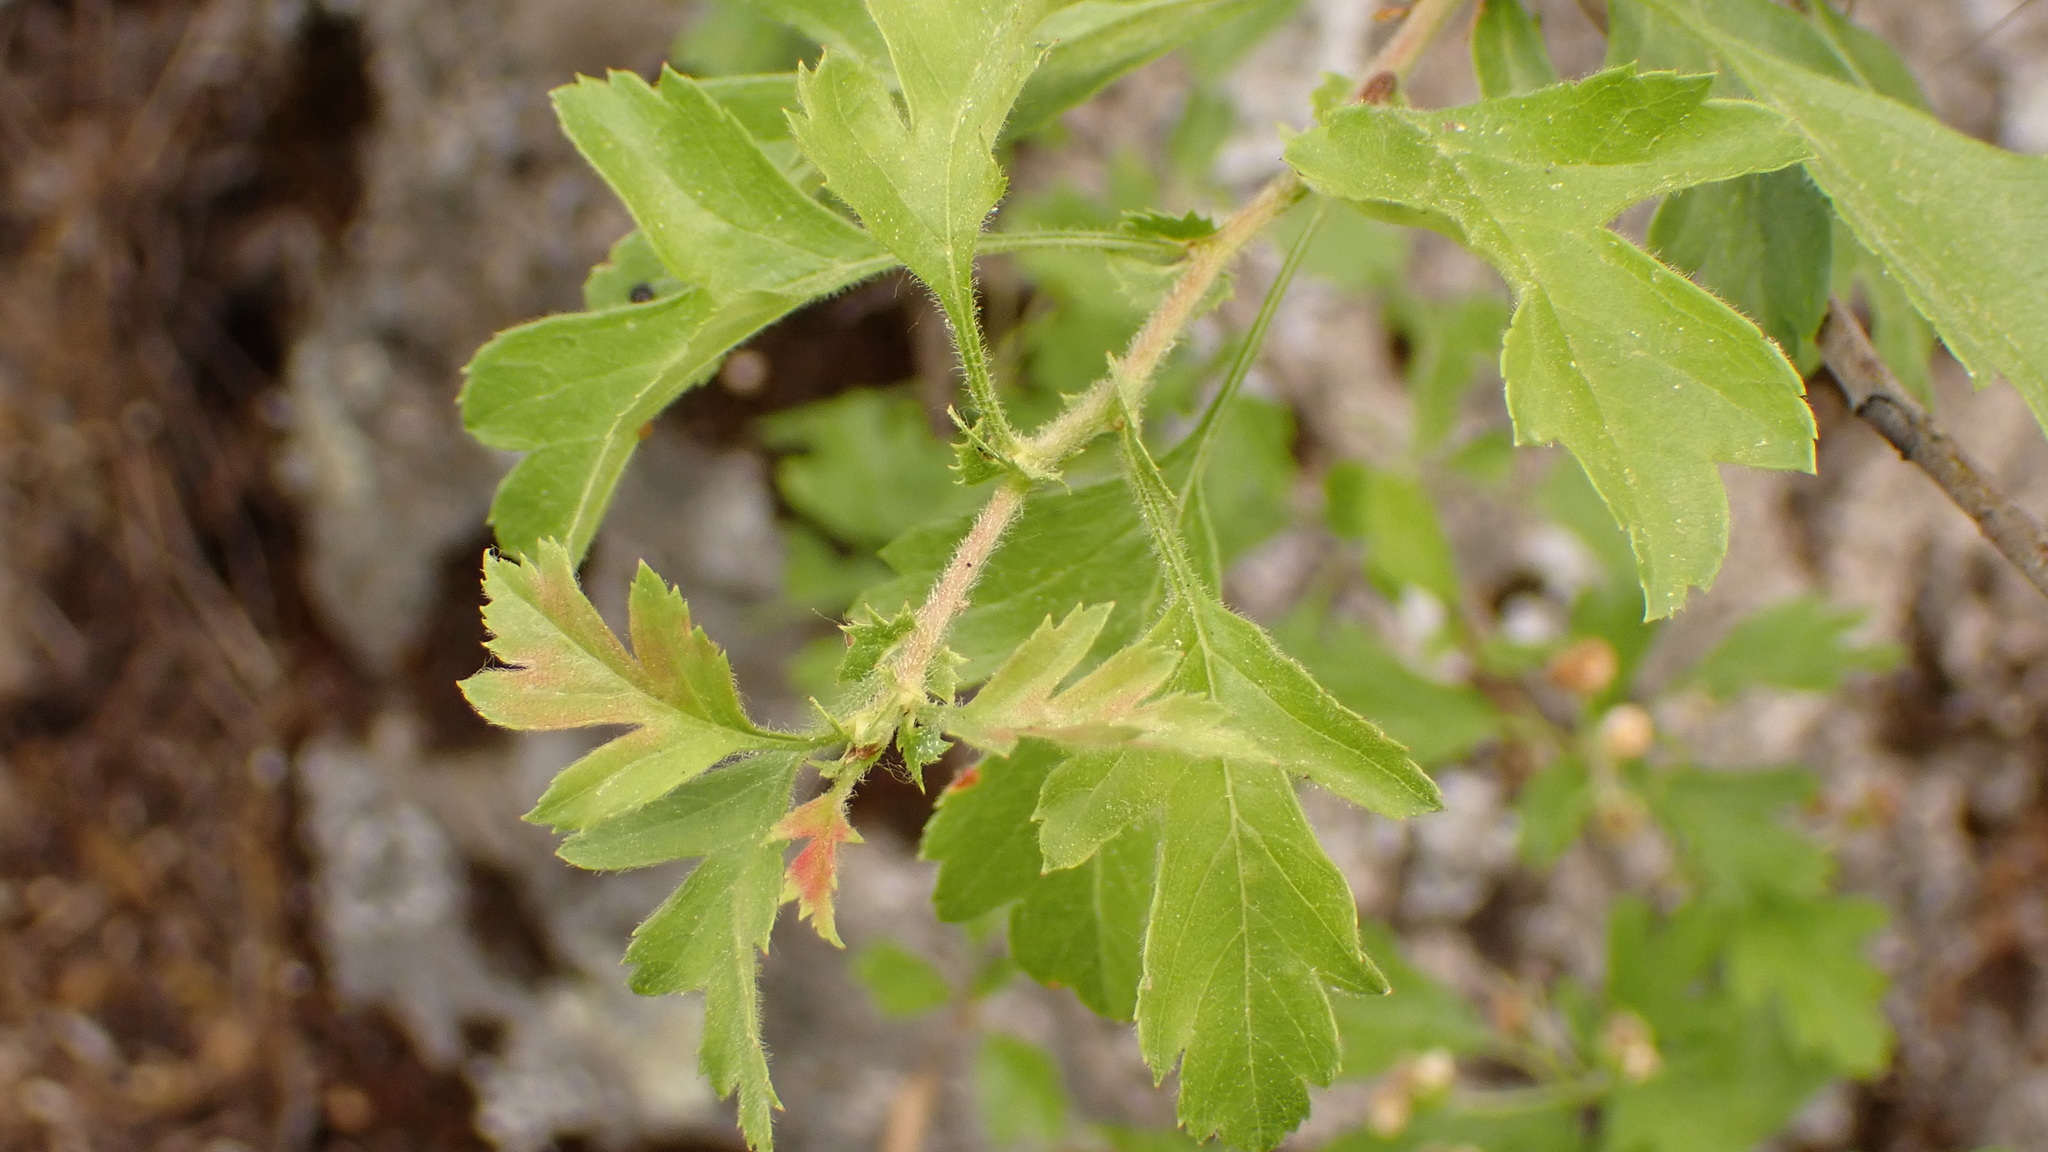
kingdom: Plantae
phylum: Tracheophyta
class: Magnoliopsida
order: Rosales
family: Rosaceae
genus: Crataegus
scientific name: Crataegus monogyna
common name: Hawthorn
